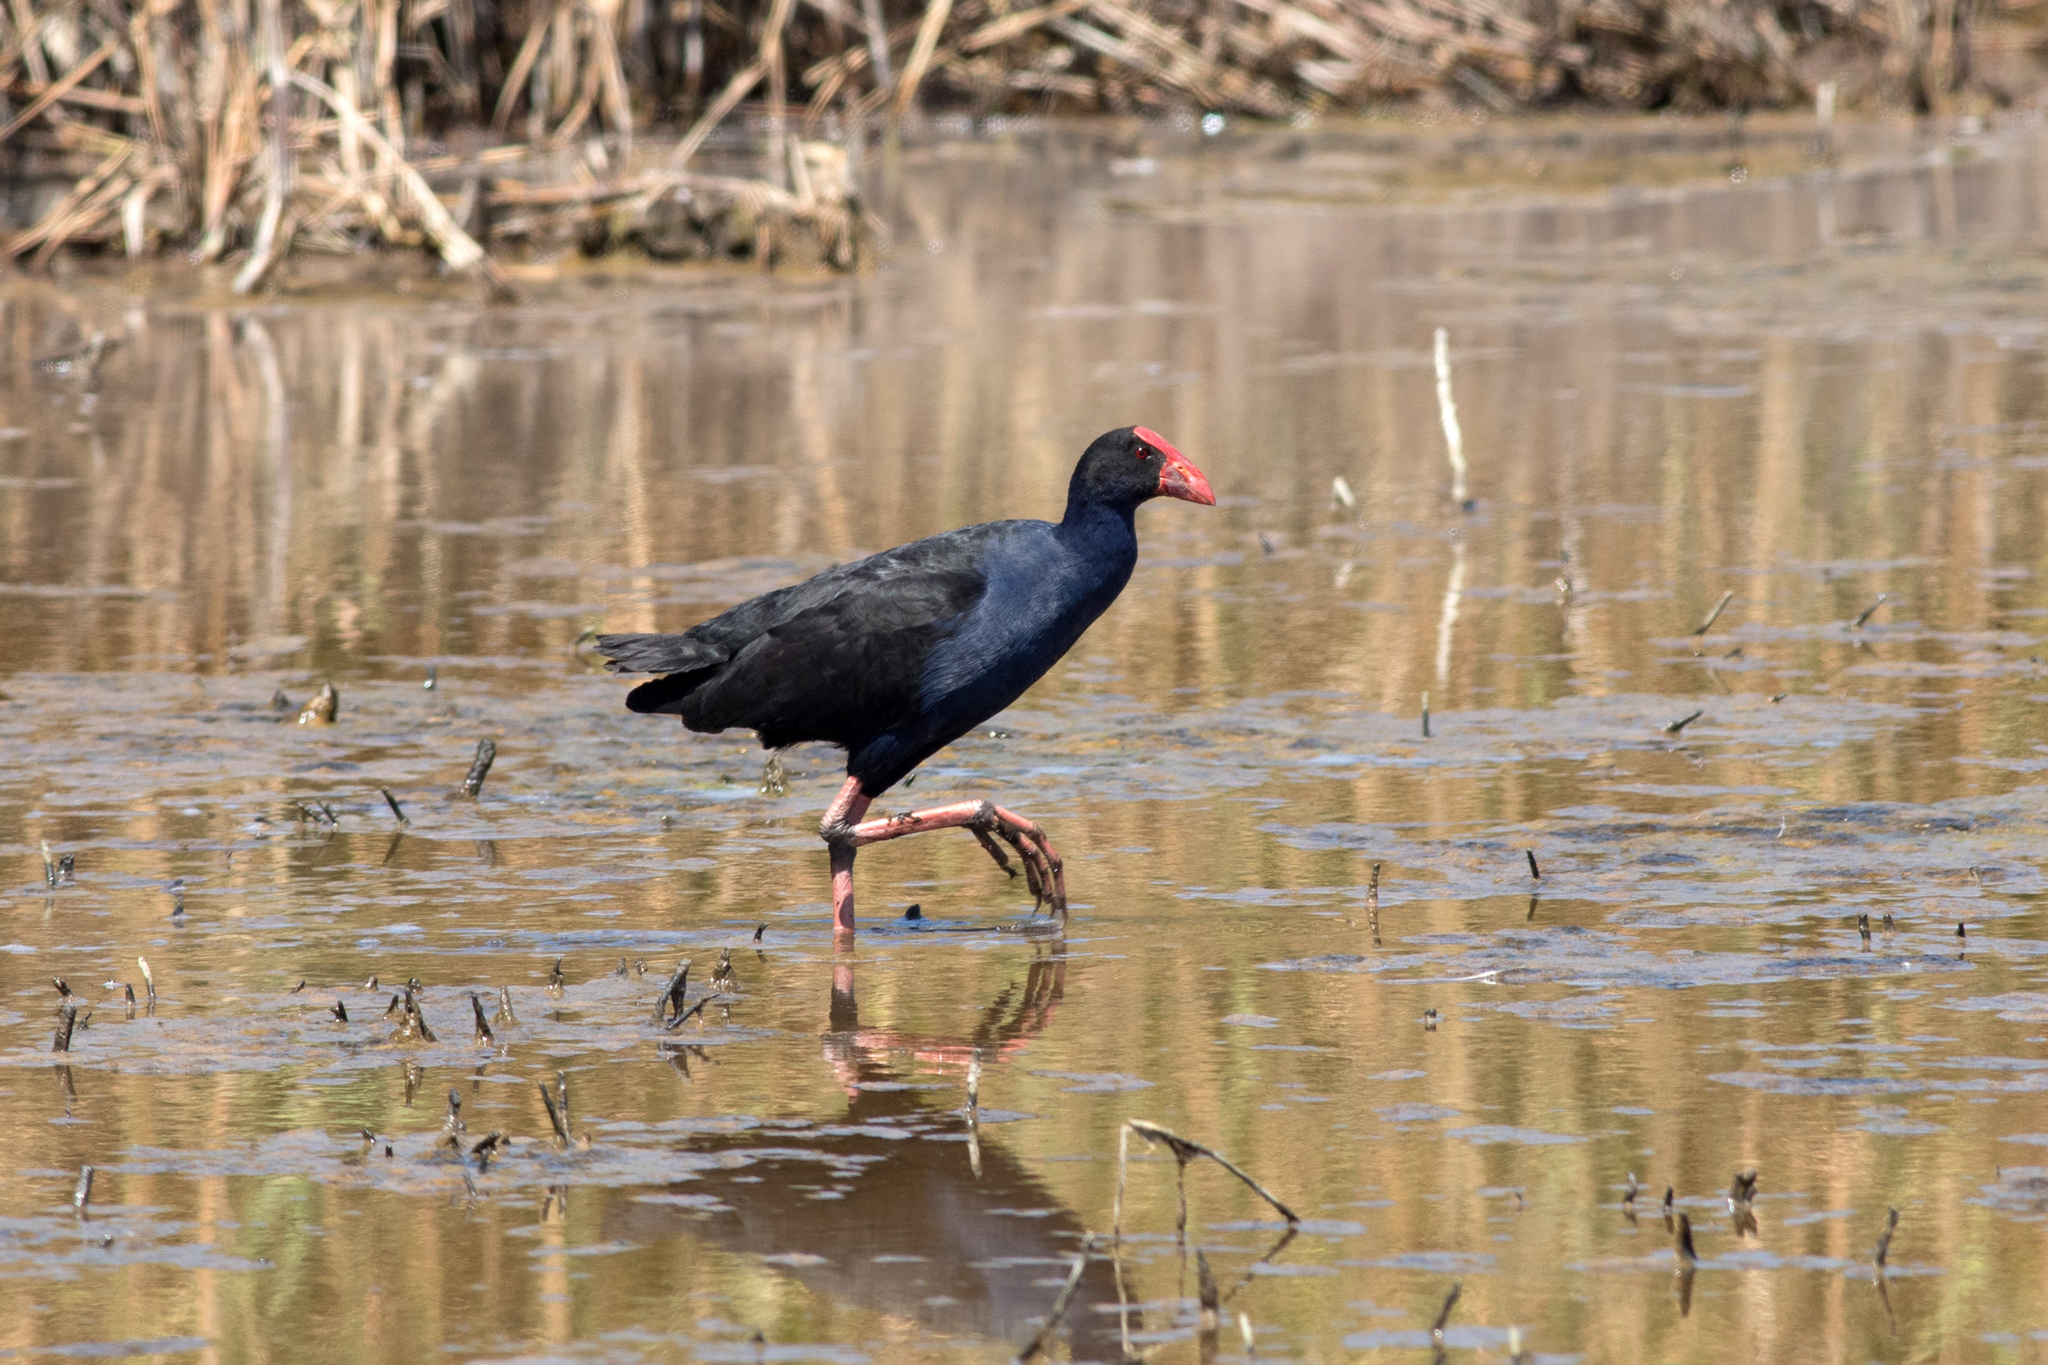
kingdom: Animalia
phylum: Chordata
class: Aves
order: Gruiformes
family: Rallidae
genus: Porphyrio
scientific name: Porphyrio melanotus
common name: Australasian swamphen
